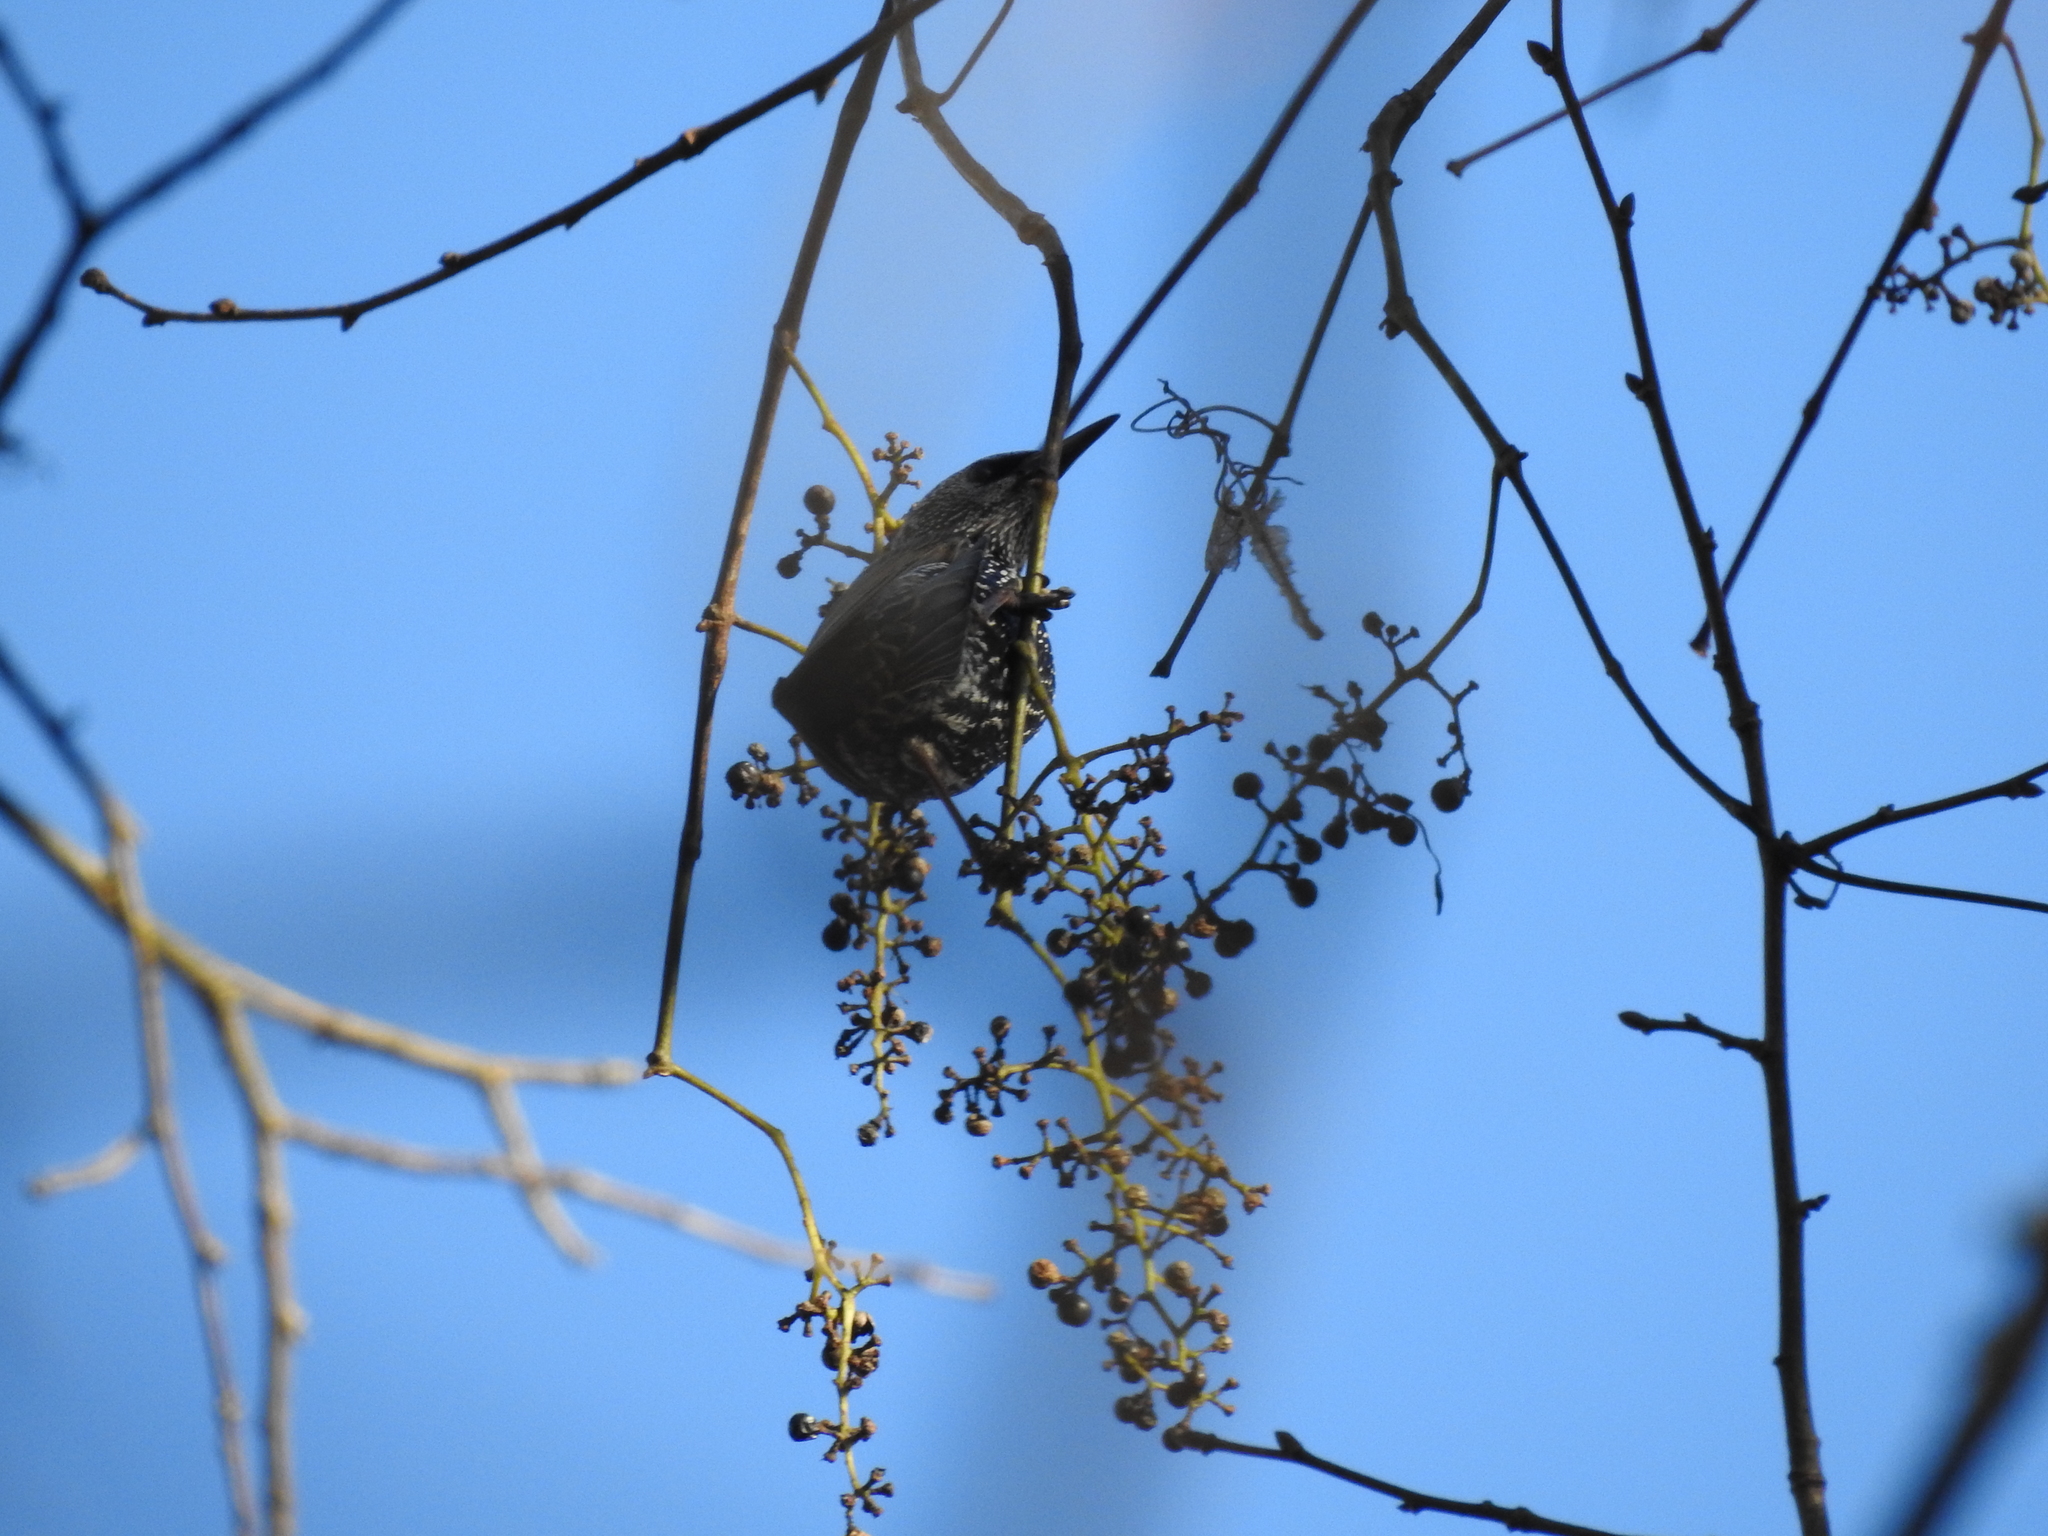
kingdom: Animalia
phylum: Chordata
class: Aves
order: Passeriformes
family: Sturnidae
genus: Sturnus
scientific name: Sturnus vulgaris
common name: Common starling
